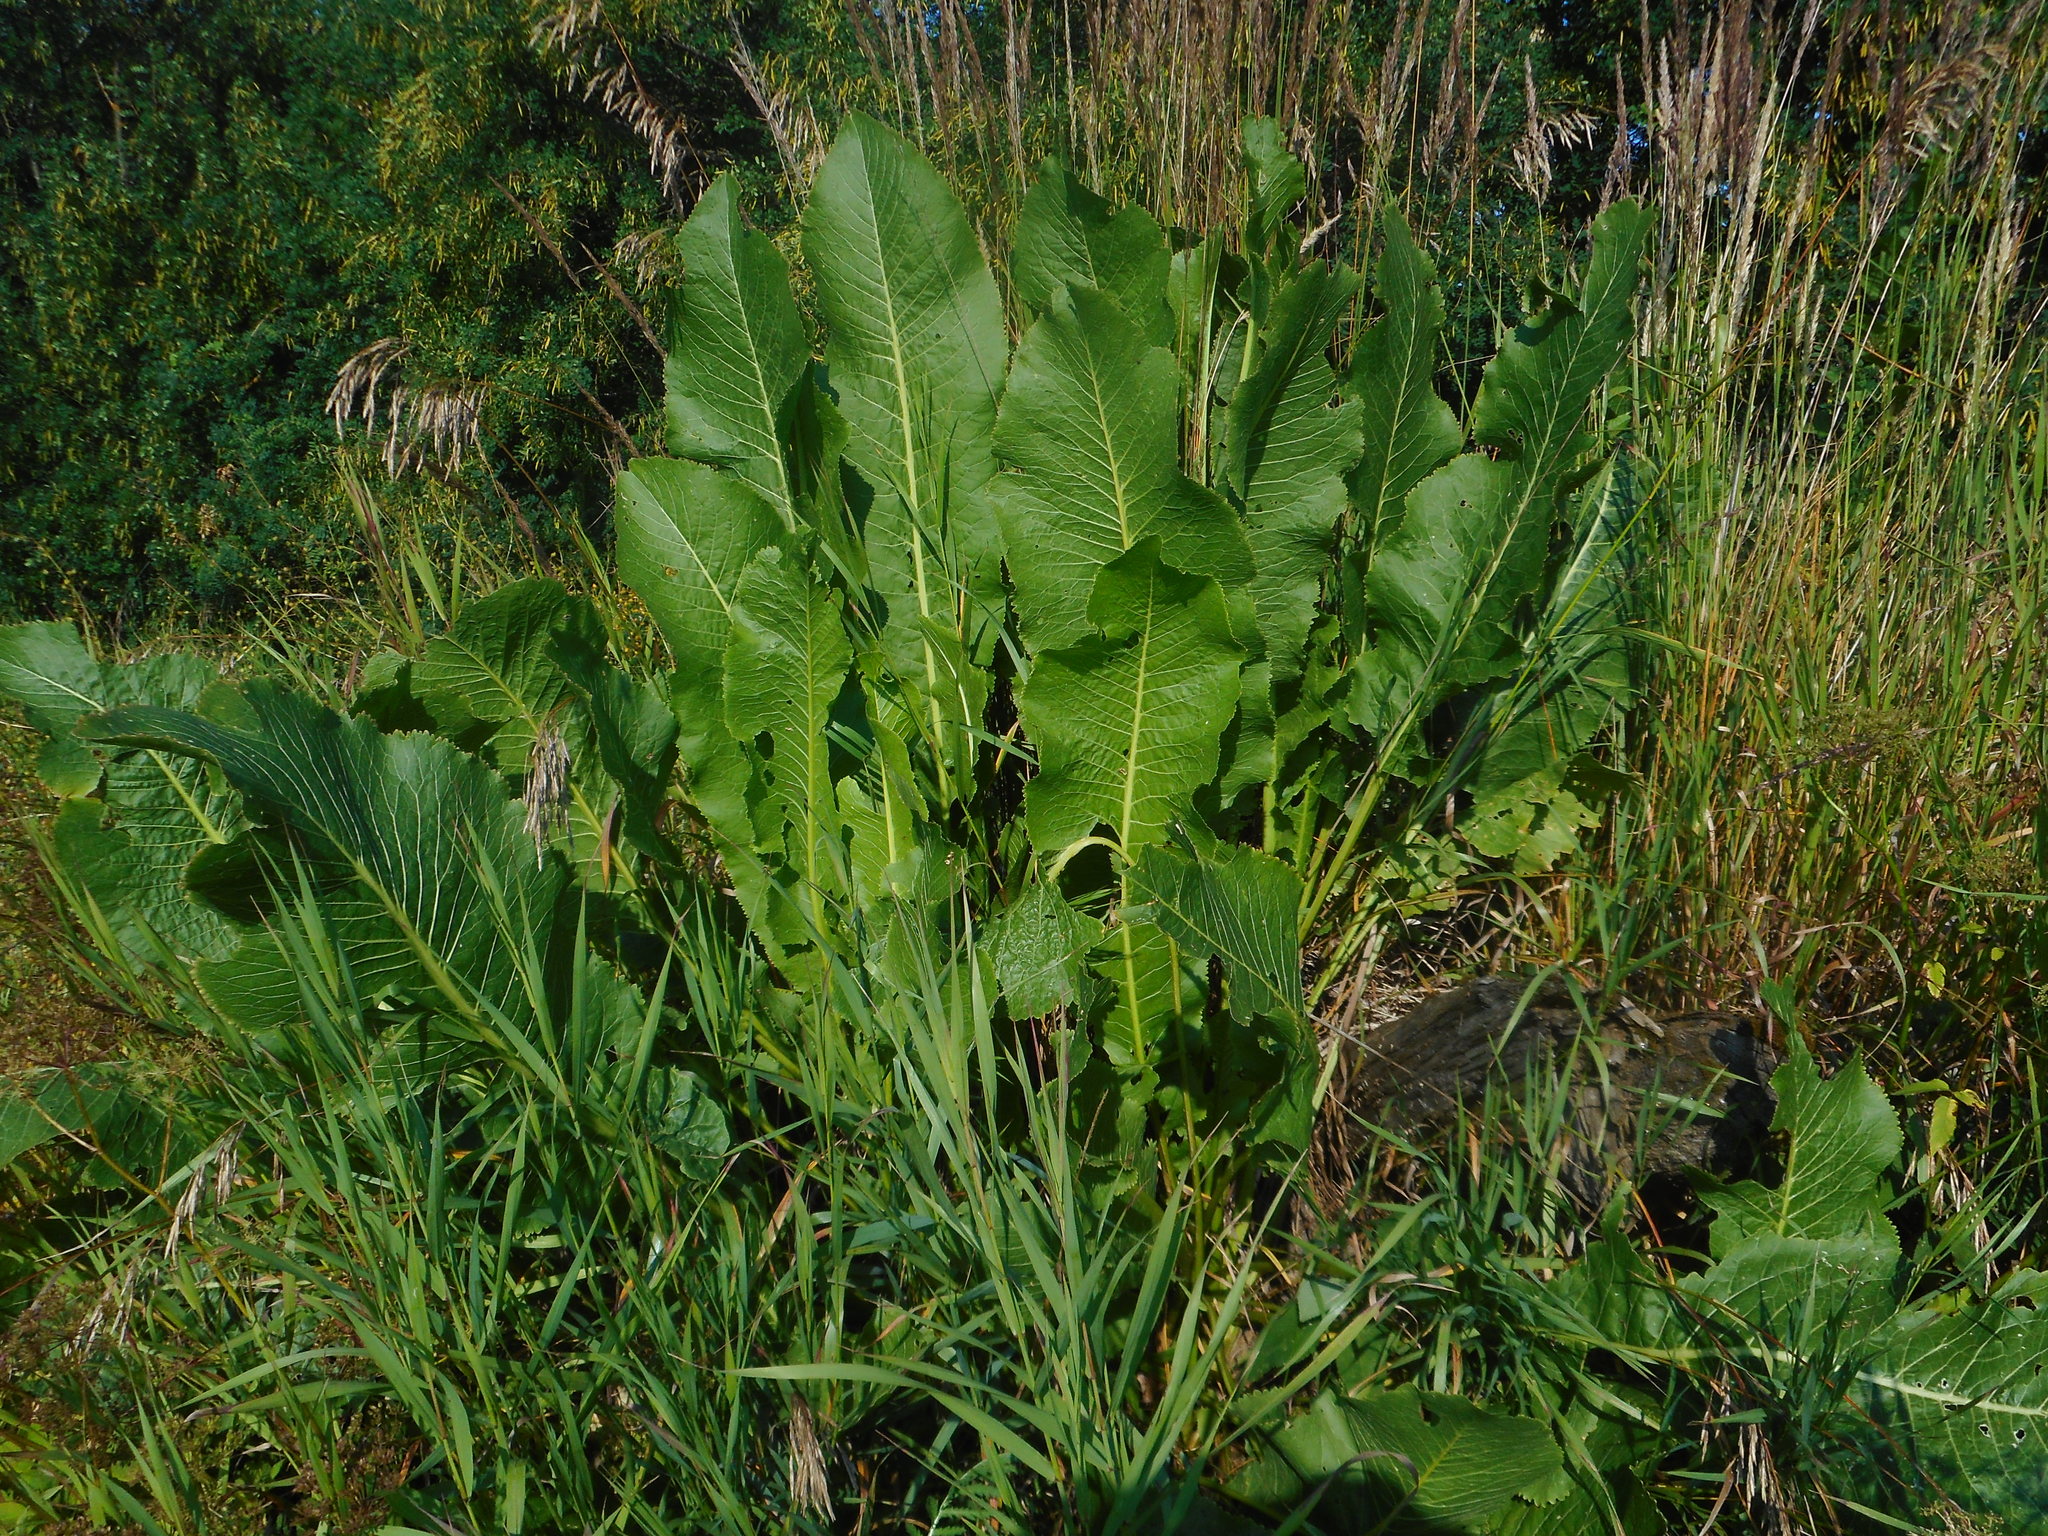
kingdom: Plantae
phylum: Tracheophyta
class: Magnoliopsida
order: Brassicales
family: Brassicaceae
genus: Armoracia
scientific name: Armoracia rusticana
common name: Horseradish
